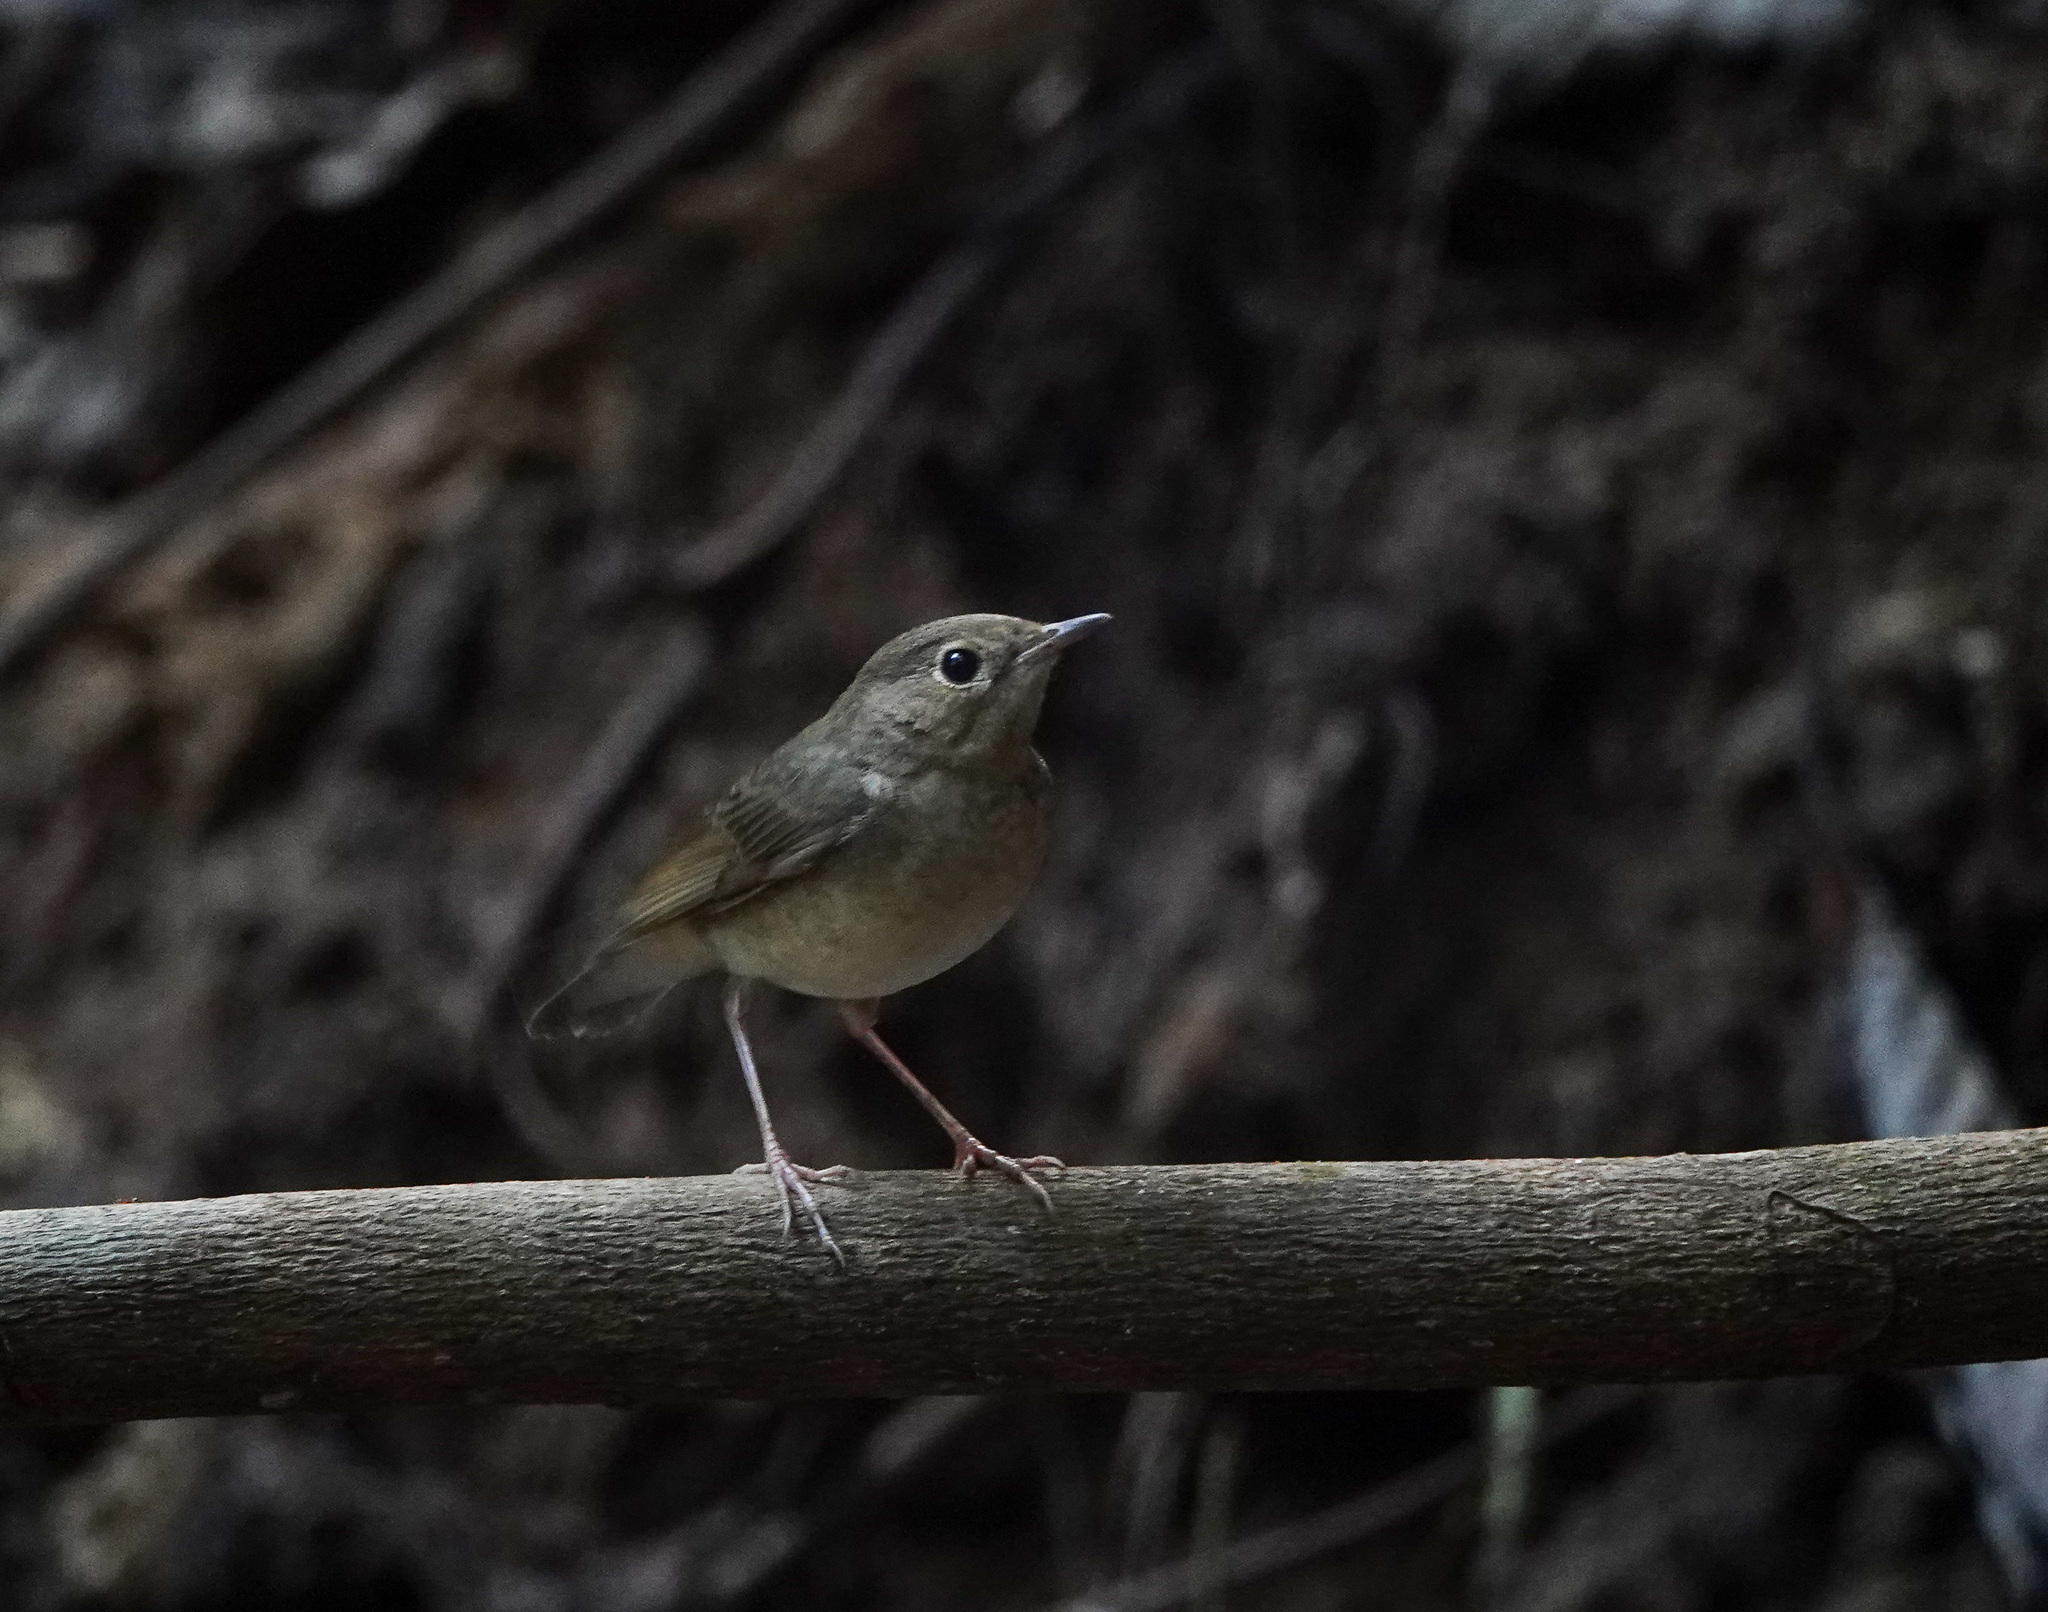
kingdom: Animalia
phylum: Chordata
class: Aves
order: Passeriformes
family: Muscicapidae
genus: Luscinia
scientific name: Luscinia cyane
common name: Siberian blue robin
